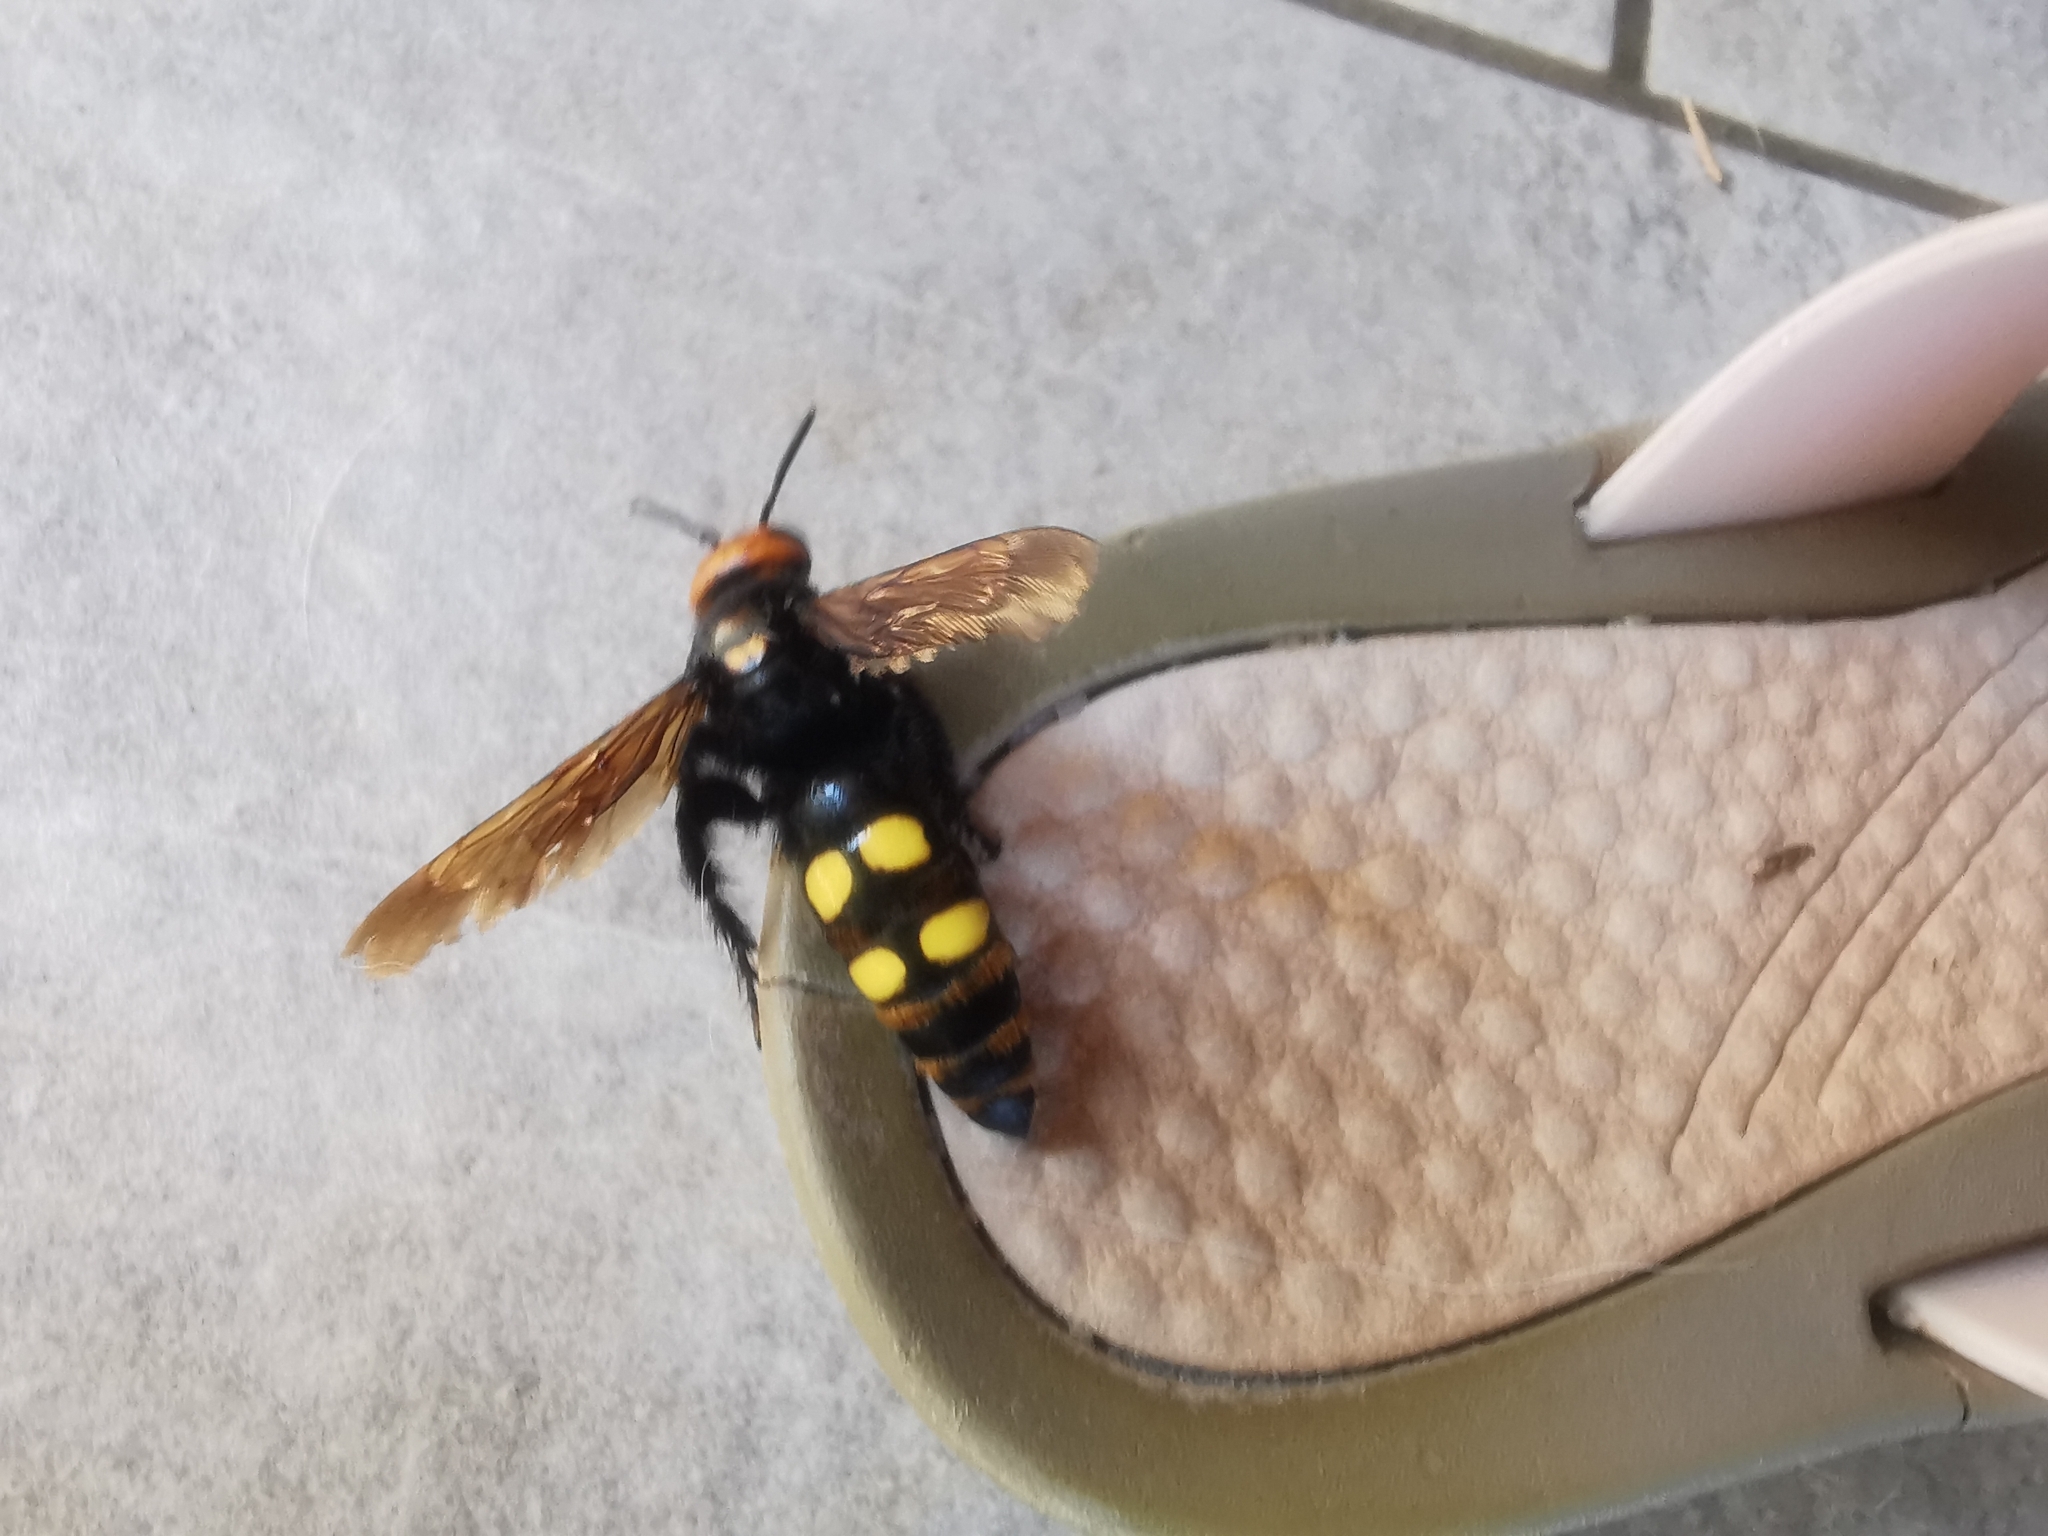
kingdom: Animalia
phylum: Arthropoda
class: Insecta
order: Hymenoptera
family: Scoliidae
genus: Megascolia
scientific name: Megascolia maculata
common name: Mammoth wasp
